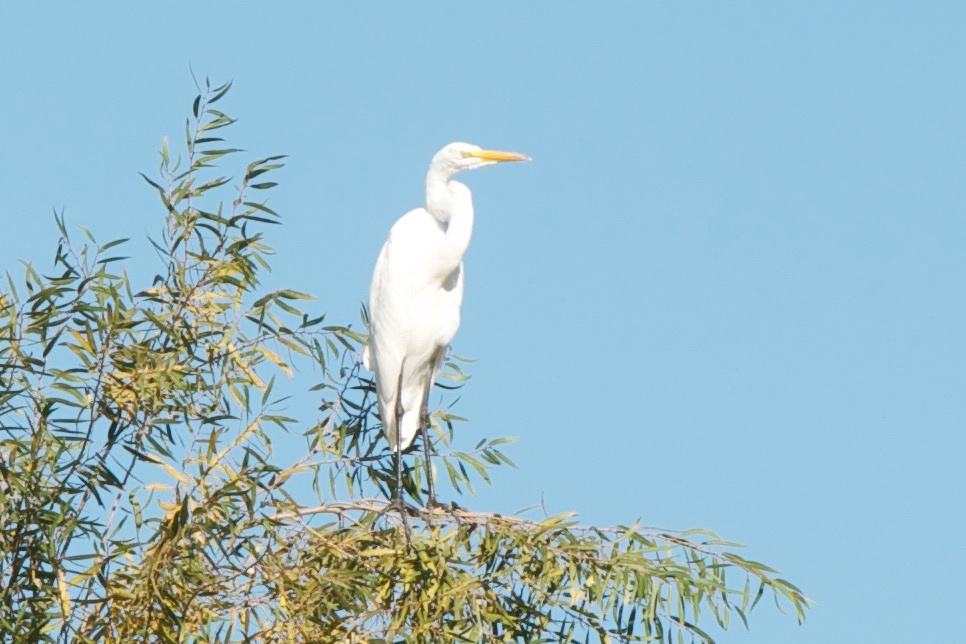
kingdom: Animalia
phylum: Chordata
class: Aves
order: Pelecaniformes
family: Ardeidae
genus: Ardea
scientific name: Ardea alba
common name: Great egret
